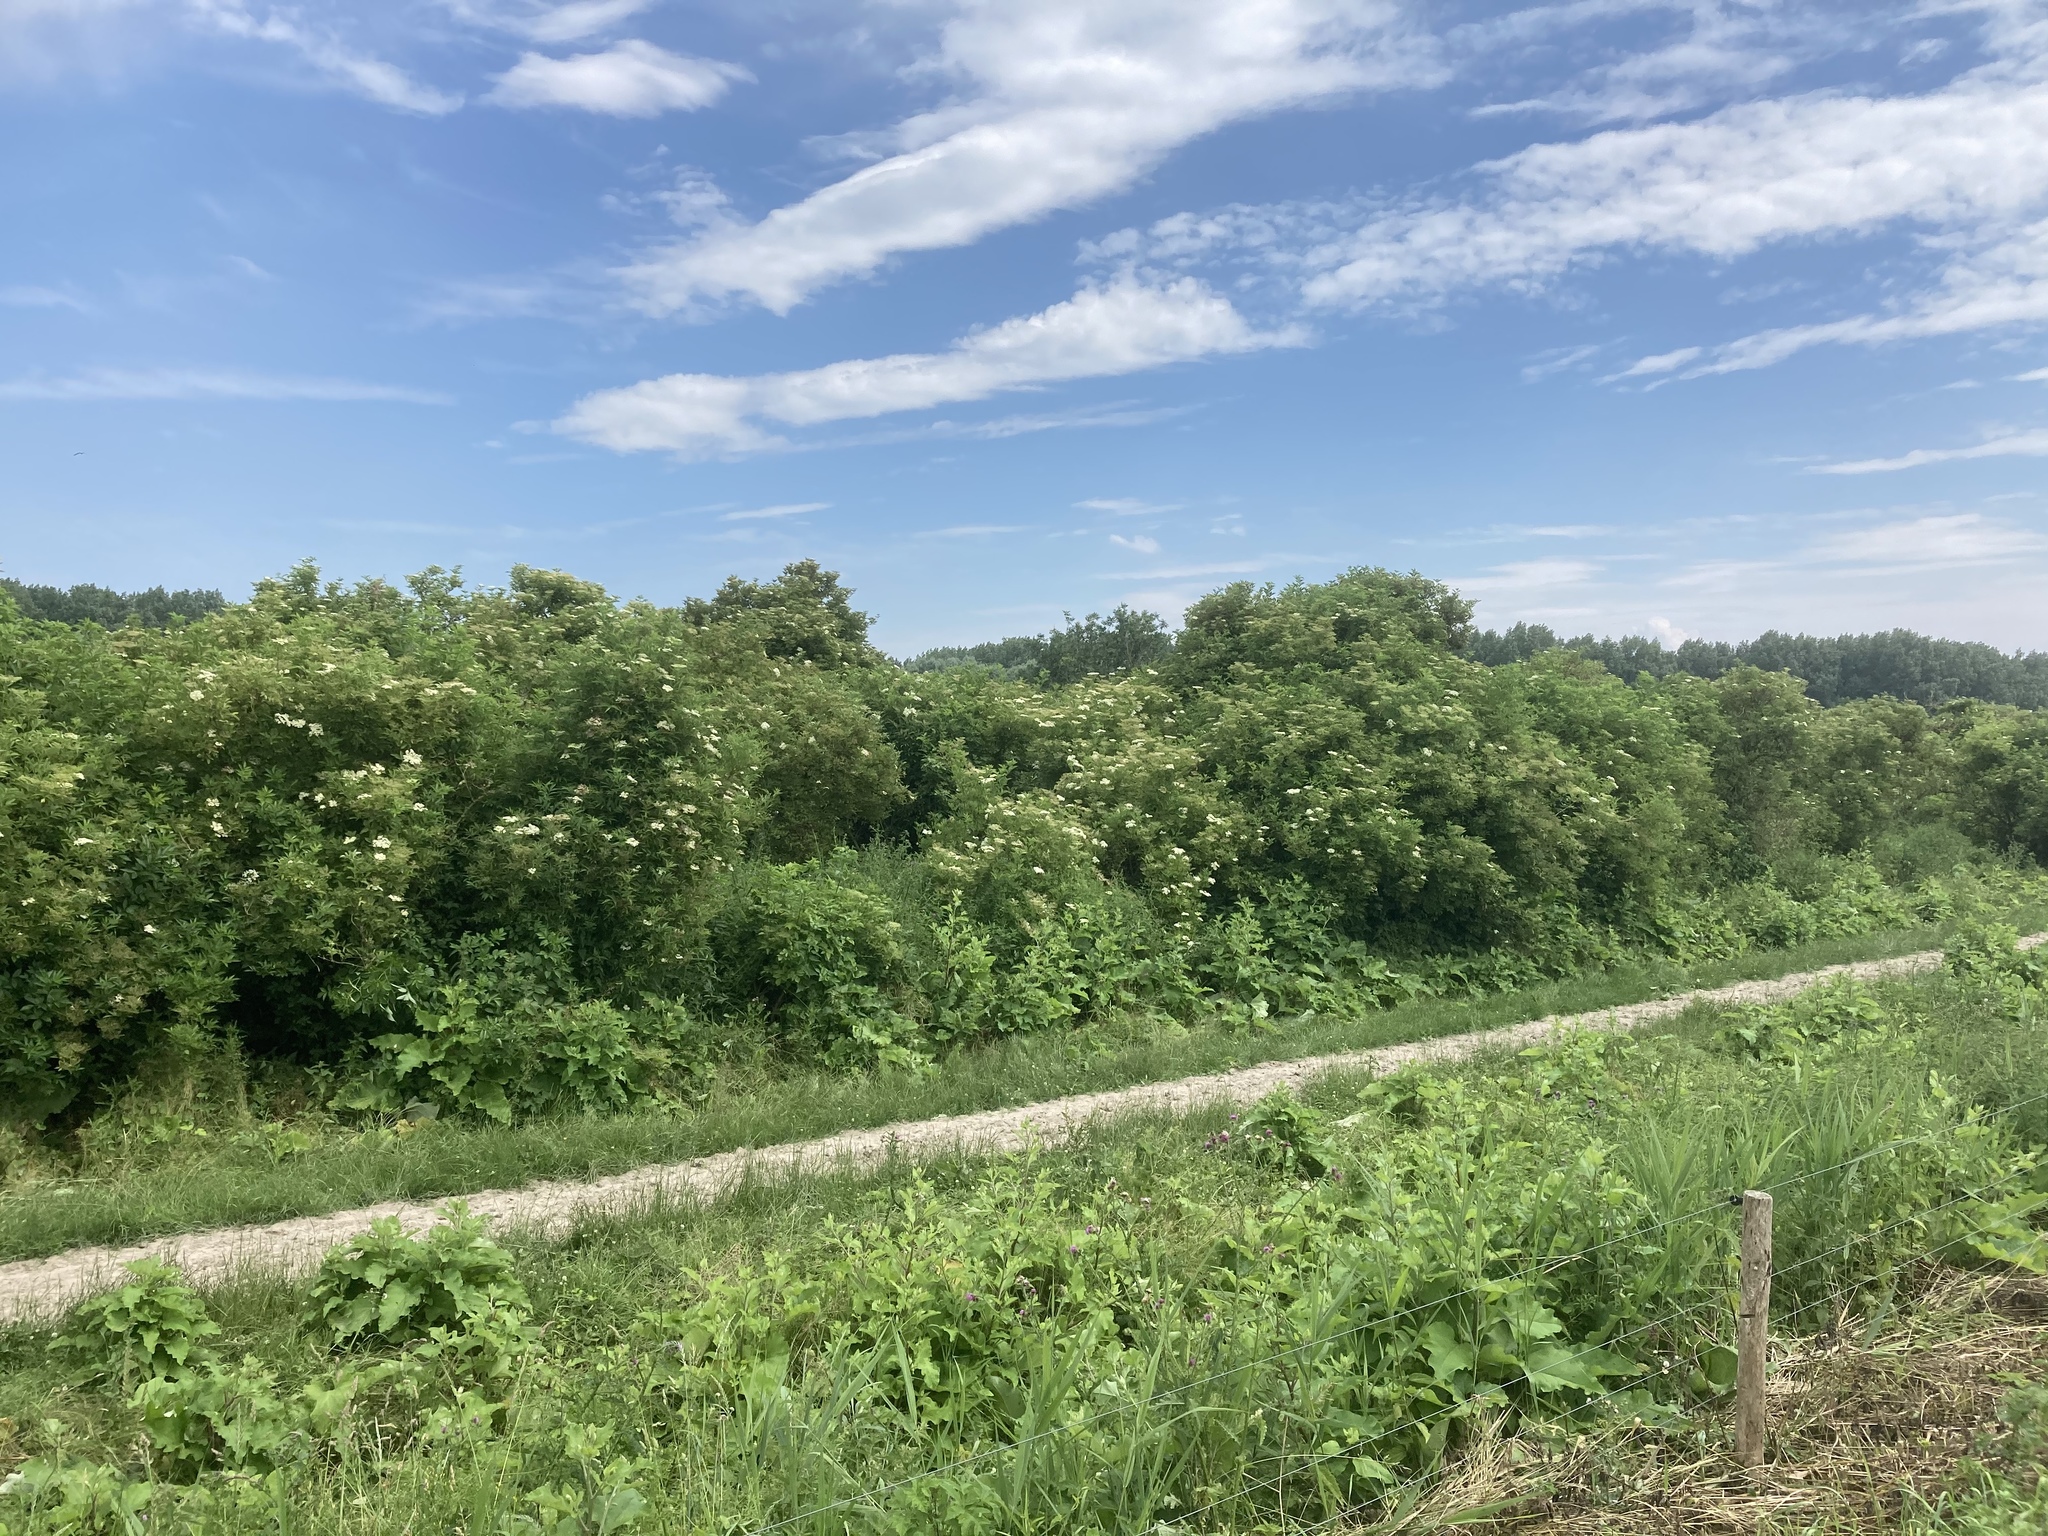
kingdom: Plantae
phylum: Tracheophyta
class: Magnoliopsida
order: Dipsacales
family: Viburnaceae
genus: Sambucus
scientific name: Sambucus nigra
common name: Elder
